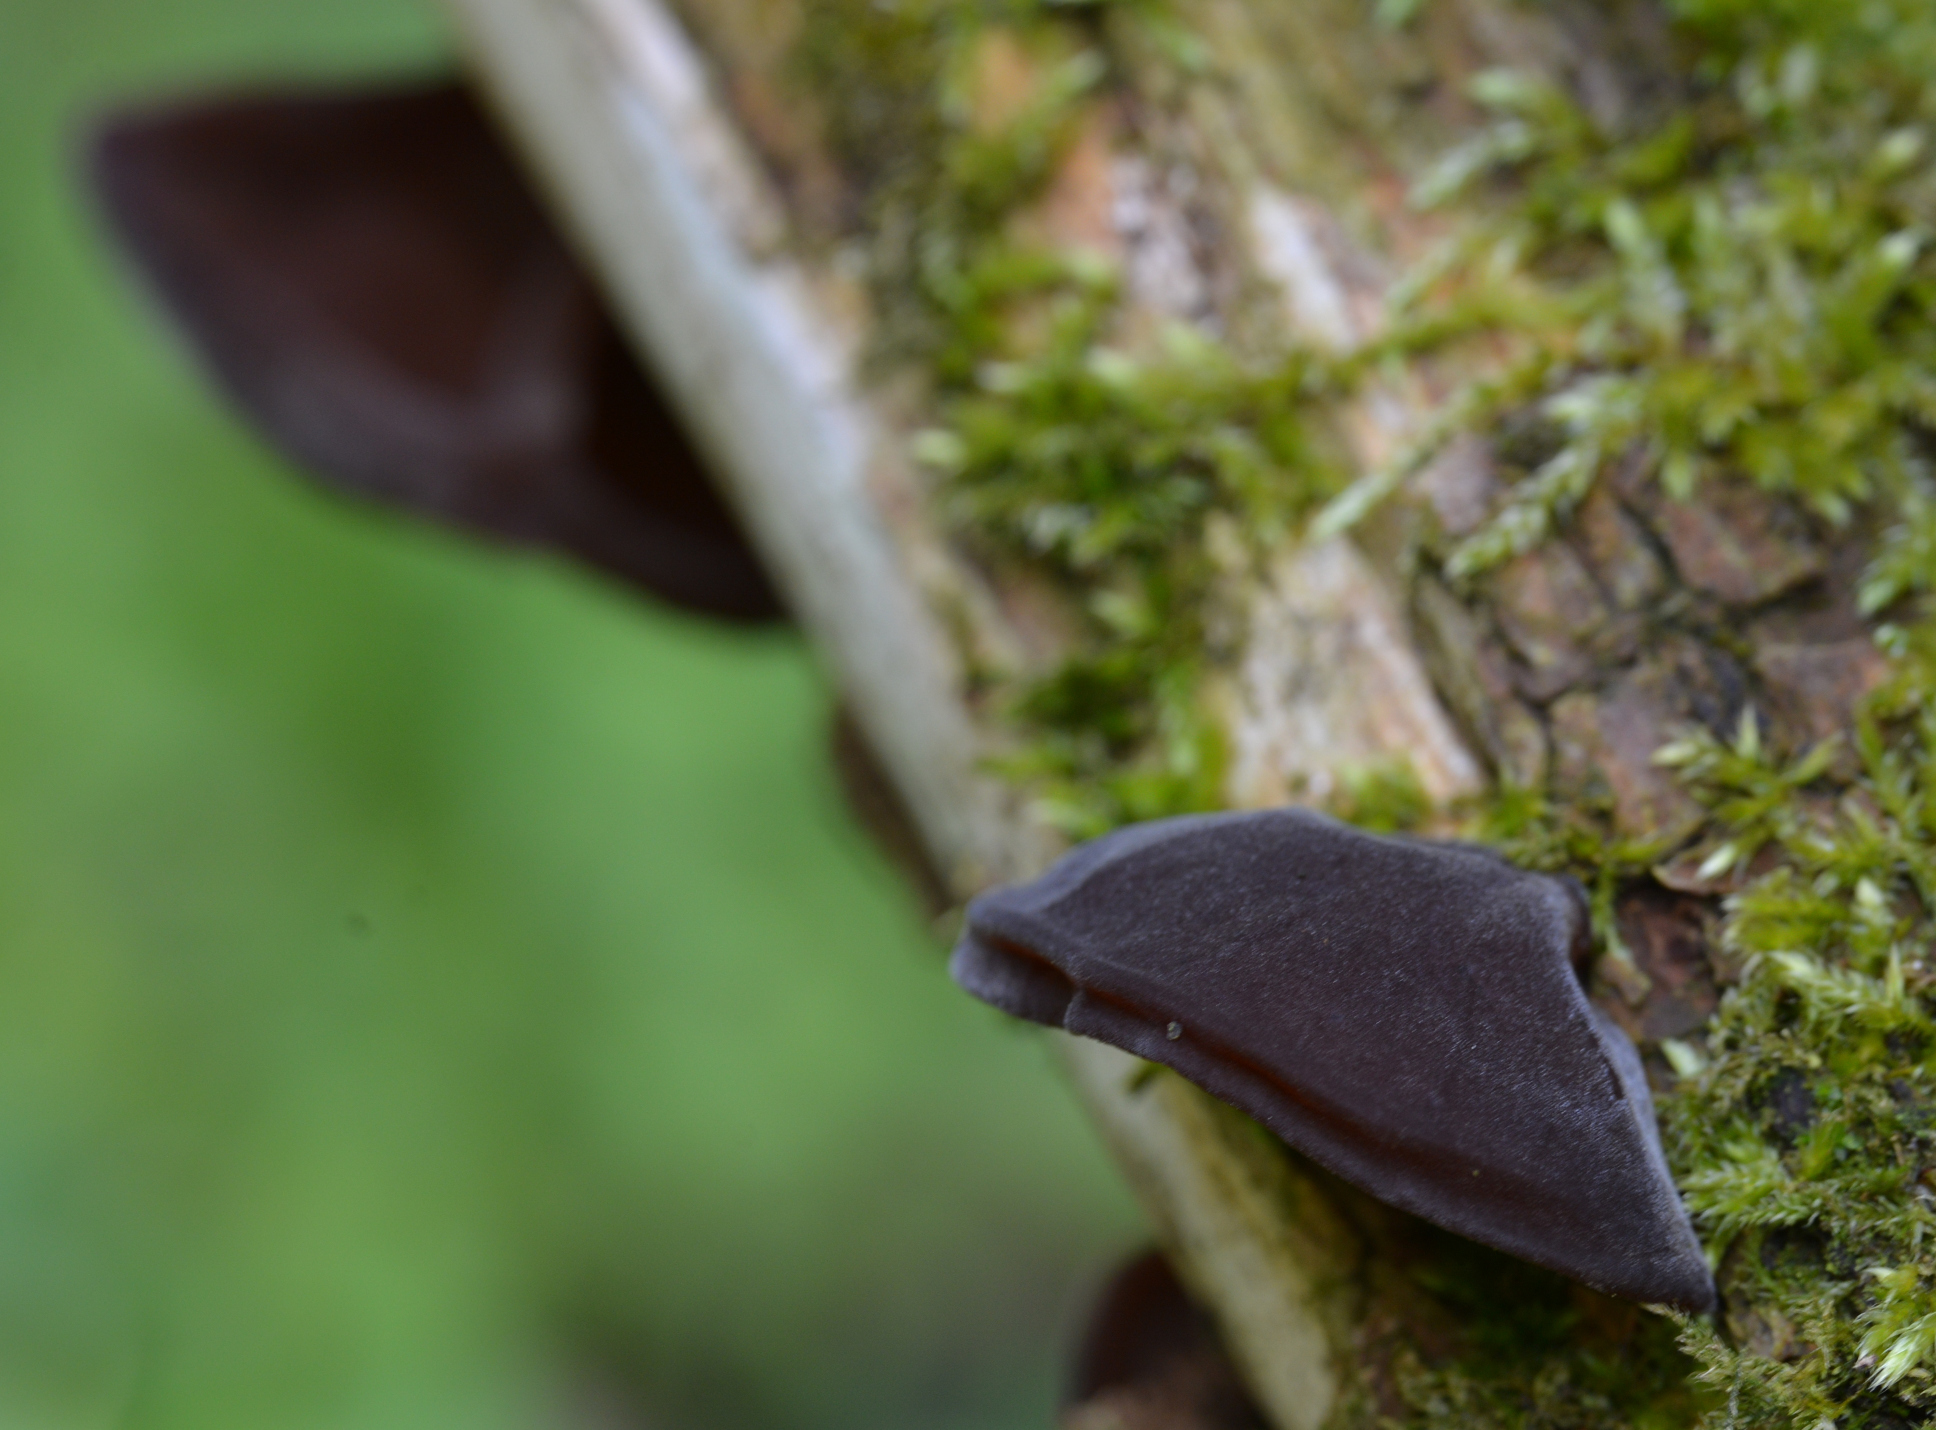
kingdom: Fungi
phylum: Basidiomycota
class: Agaricomycetes
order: Auriculariales
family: Auriculariaceae
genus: Auricularia
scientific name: Auricularia auricula-judae
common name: Jelly ear
